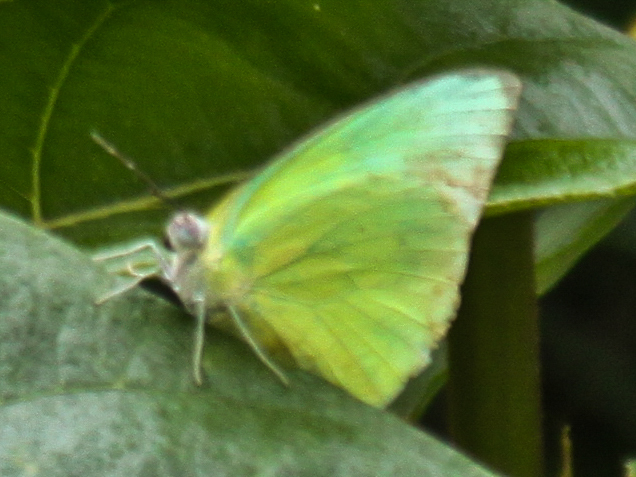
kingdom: Animalia
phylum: Arthropoda
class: Insecta
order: Lepidoptera
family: Pieridae
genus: Catopsilia
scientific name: Catopsilia pomona
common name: Common emigrant
